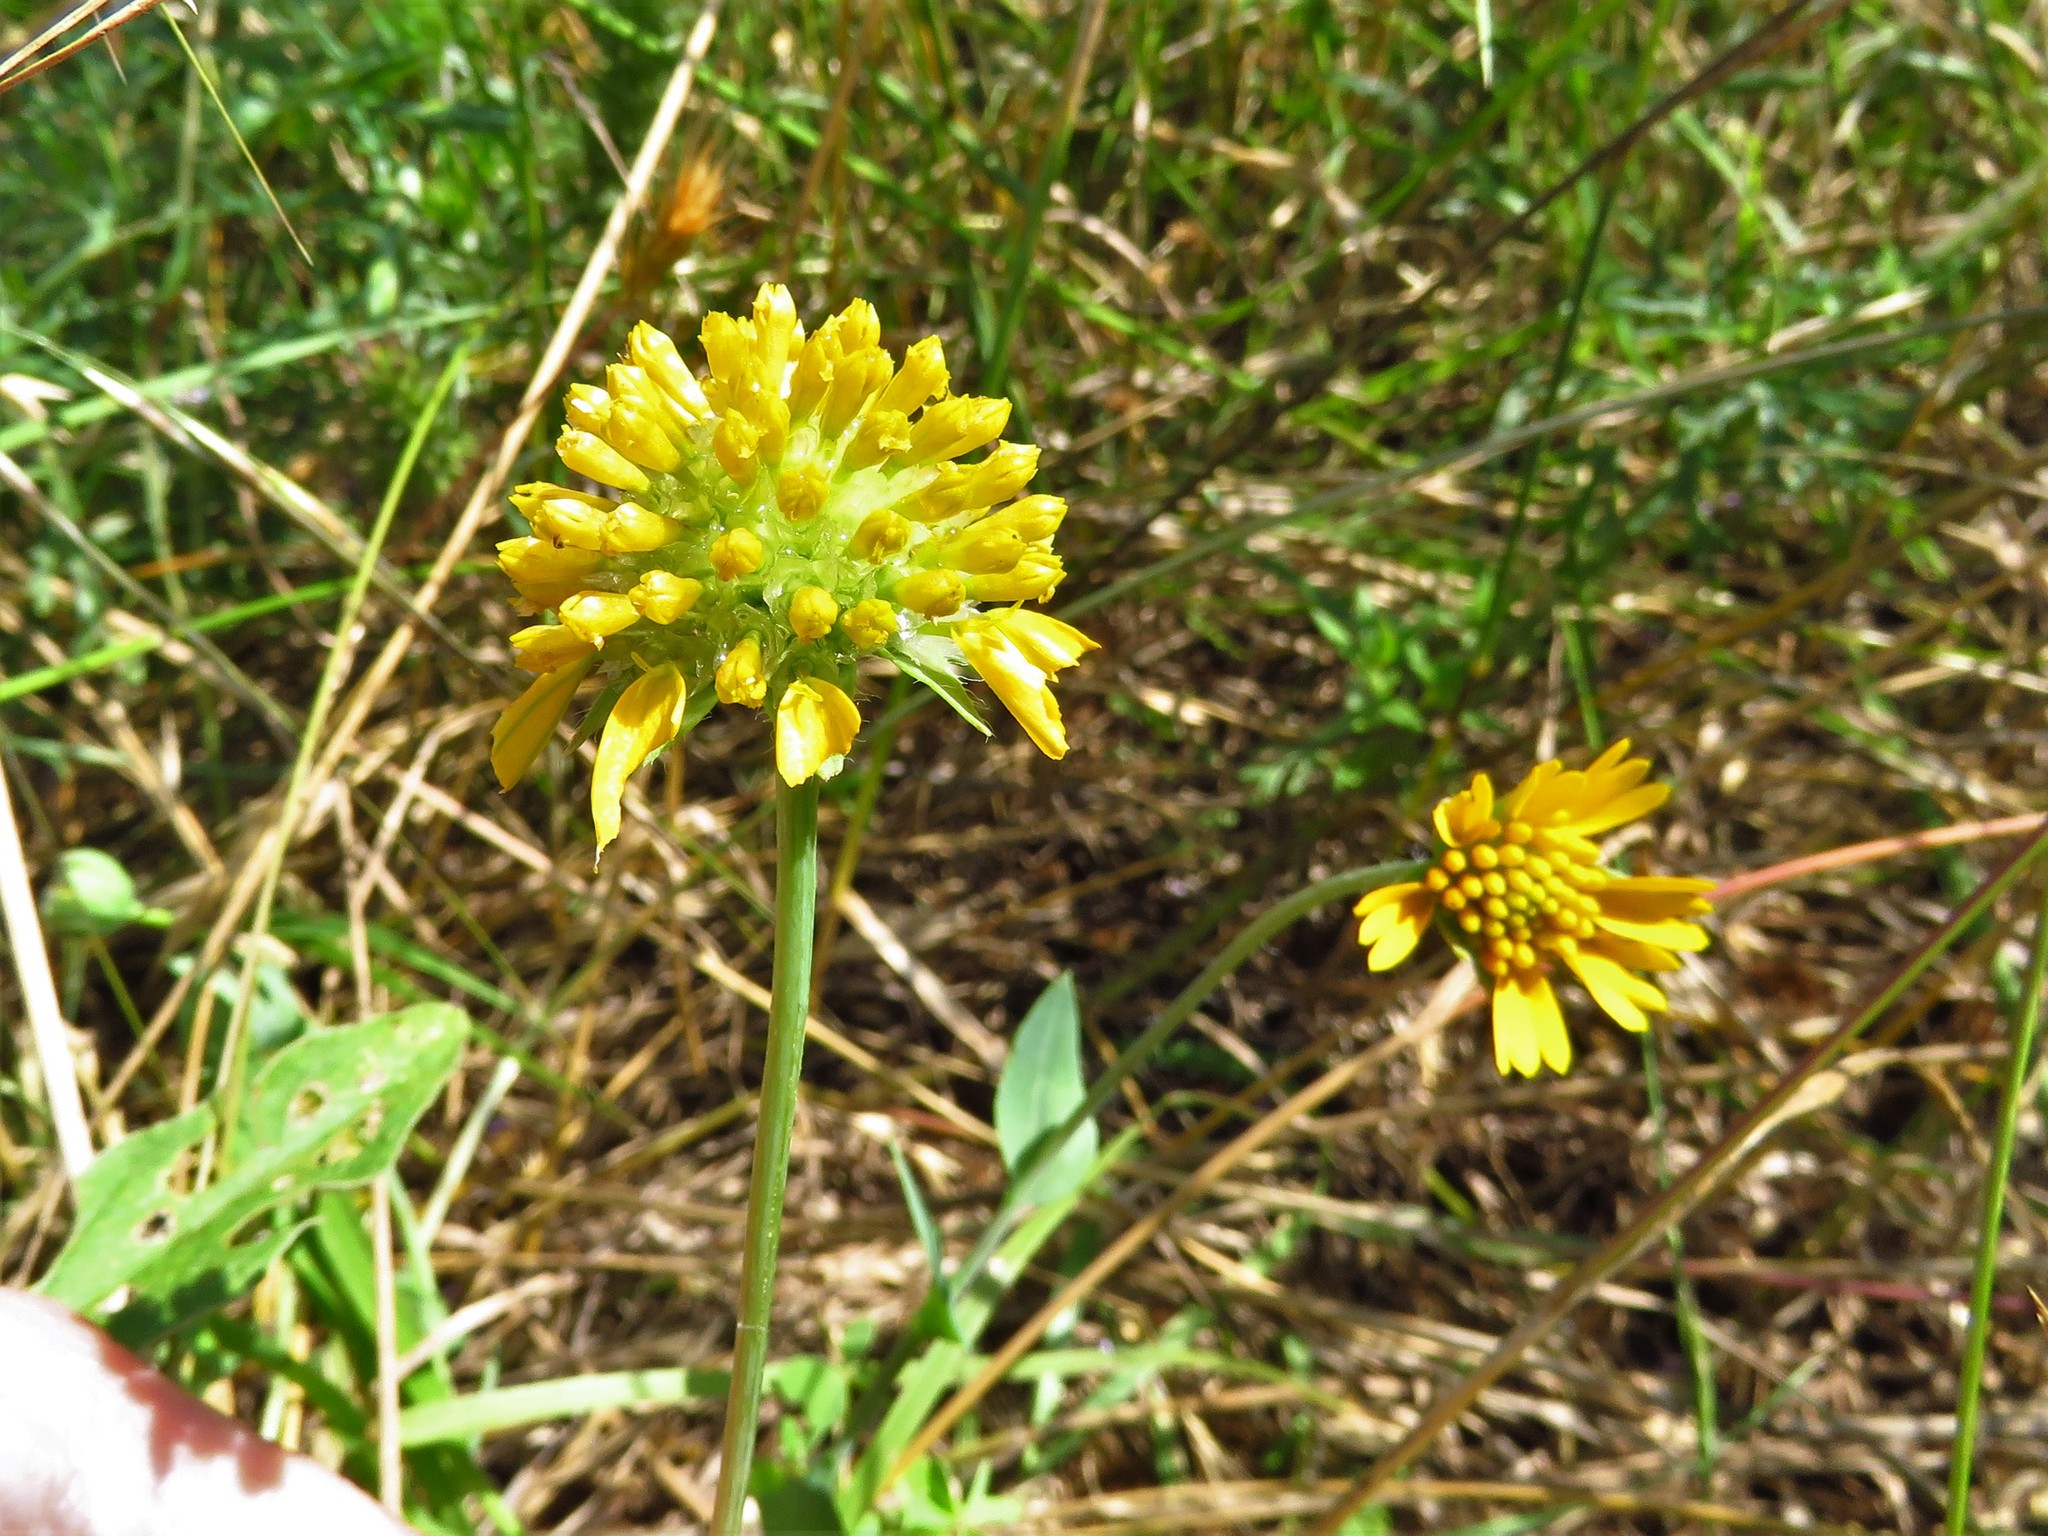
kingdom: Plantae
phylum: Tracheophyta
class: Magnoliopsida
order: Asterales
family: Asteraceae
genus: Amblyolepis
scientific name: Amblyolepis setigera
